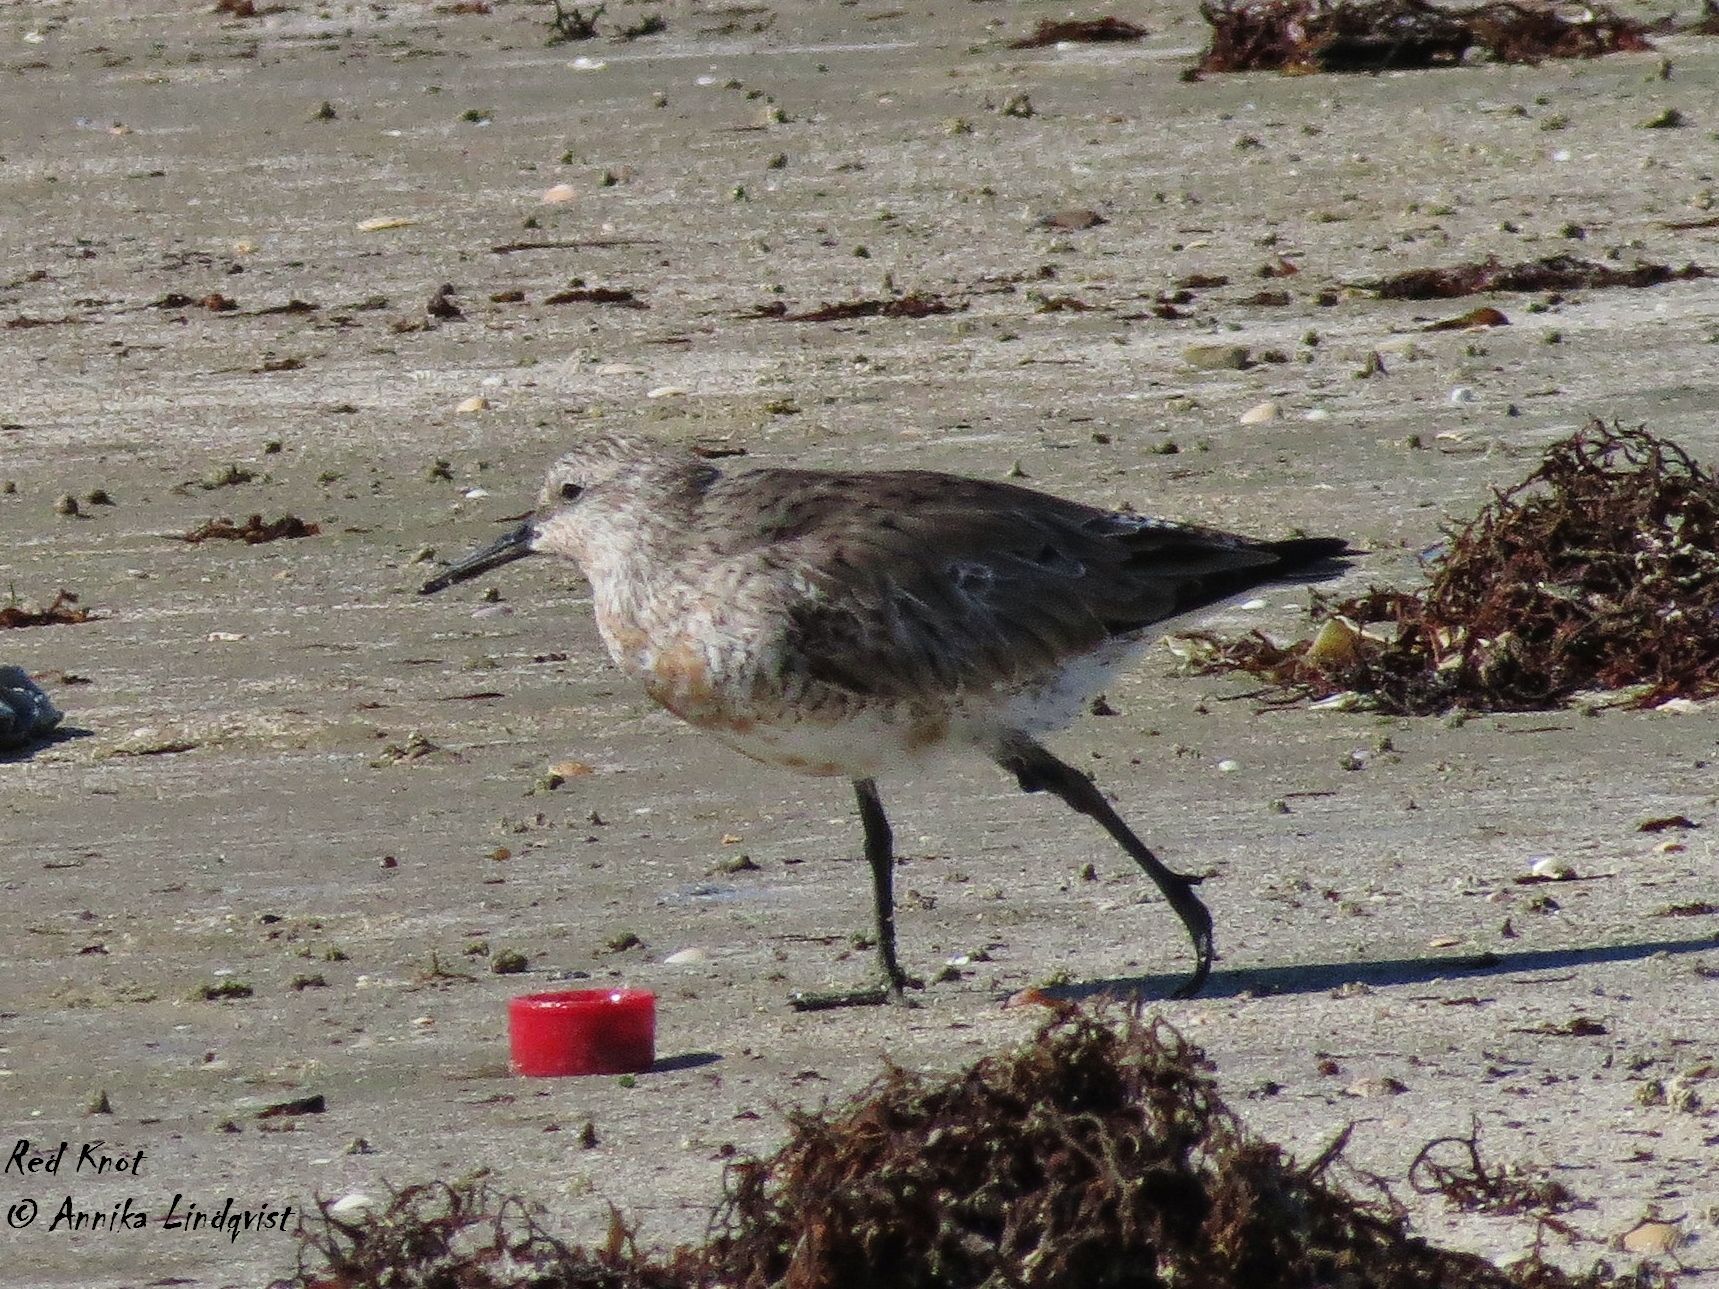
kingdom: Animalia
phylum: Chordata
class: Aves
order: Charadriiformes
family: Scolopacidae
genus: Calidris
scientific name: Calidris canutus
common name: Red knot
